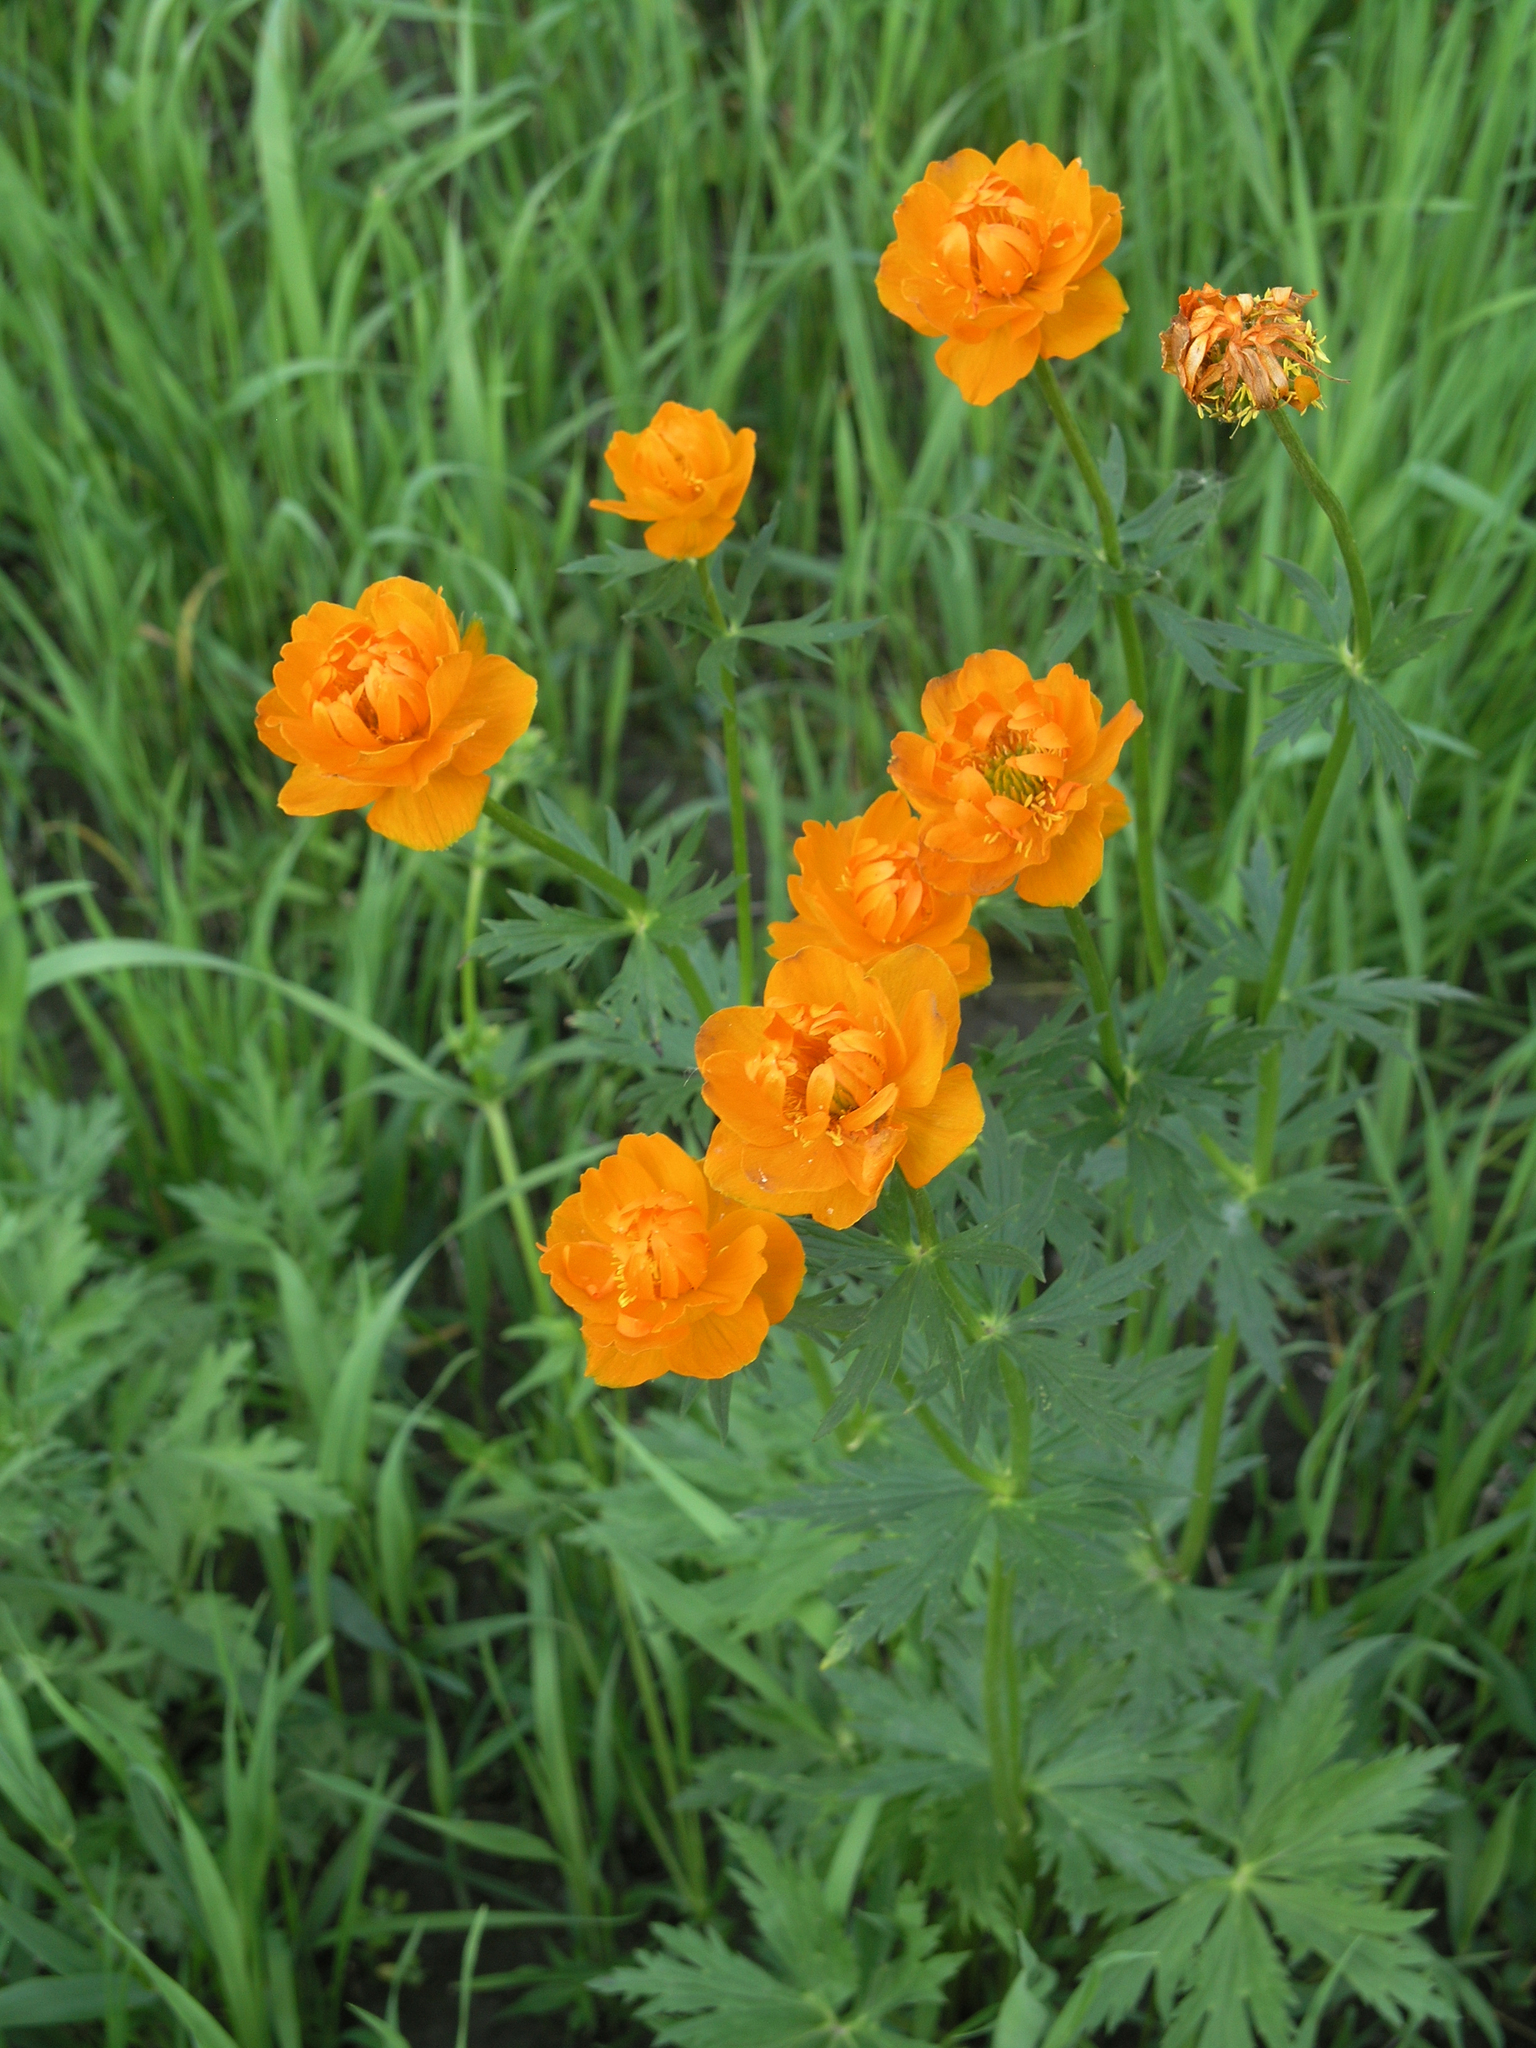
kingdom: Plantae
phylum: Tracheophyta
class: Magnoliopsida
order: Ranunculales
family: Ranunculaceae
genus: Trollius
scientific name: Trollius asiaticus
